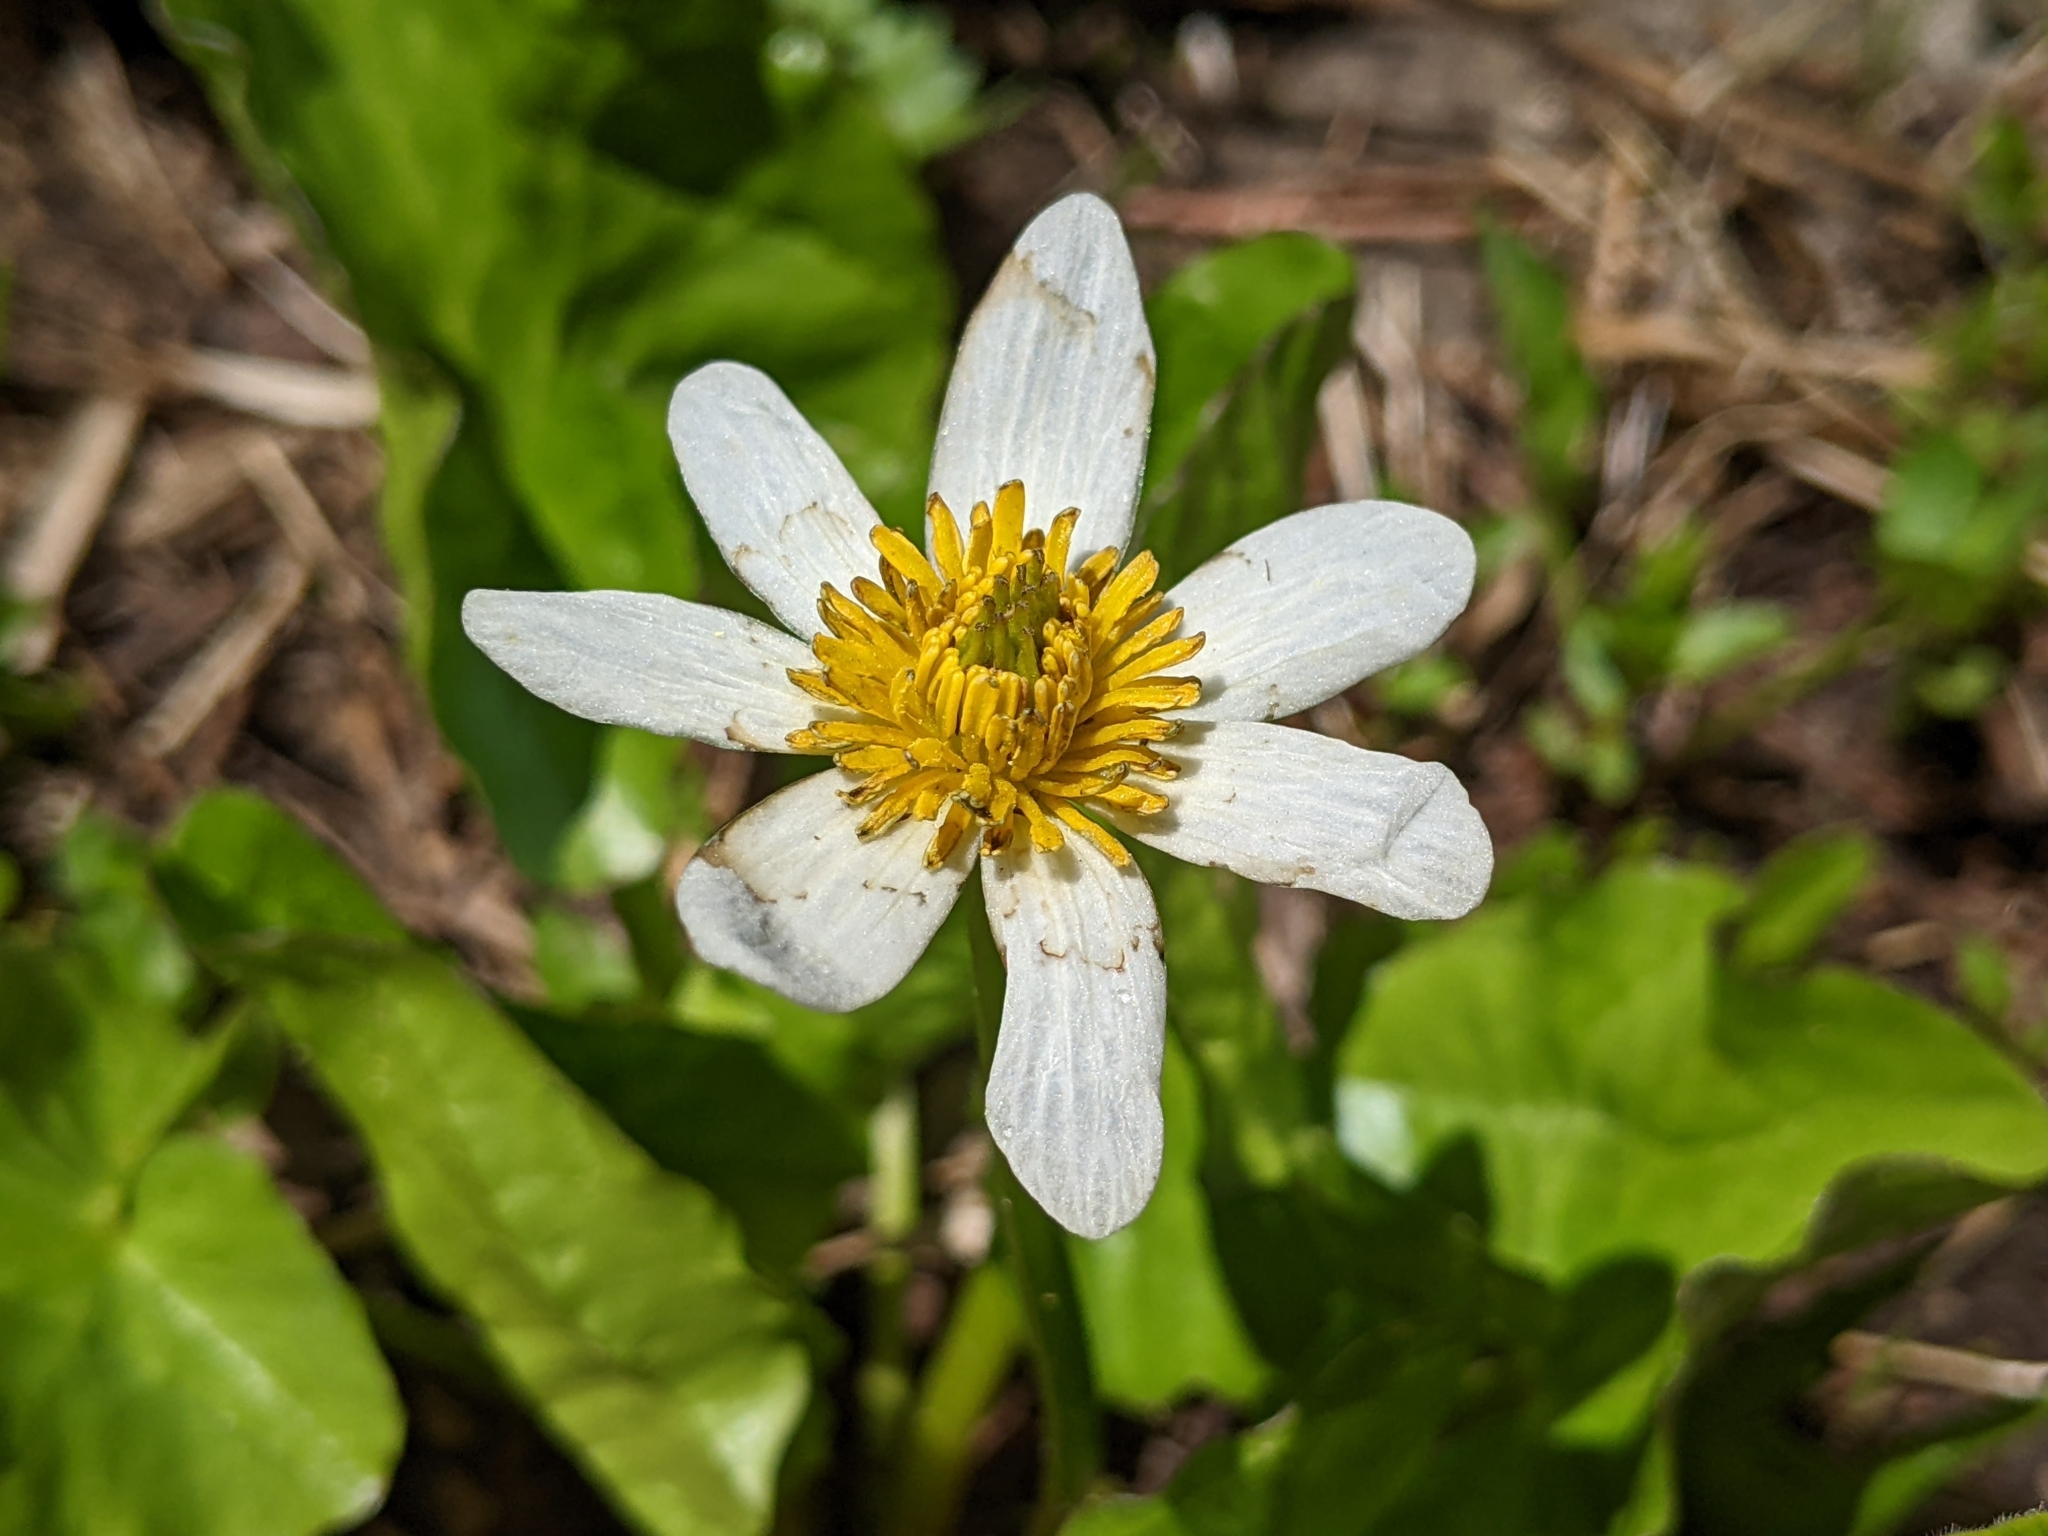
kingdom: Plantae
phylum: Tracheophyta
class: Magnoliopsida
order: Ranunculales
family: Ranunculaceae
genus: Caltha
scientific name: Caltha leptosepala
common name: Elkslip
